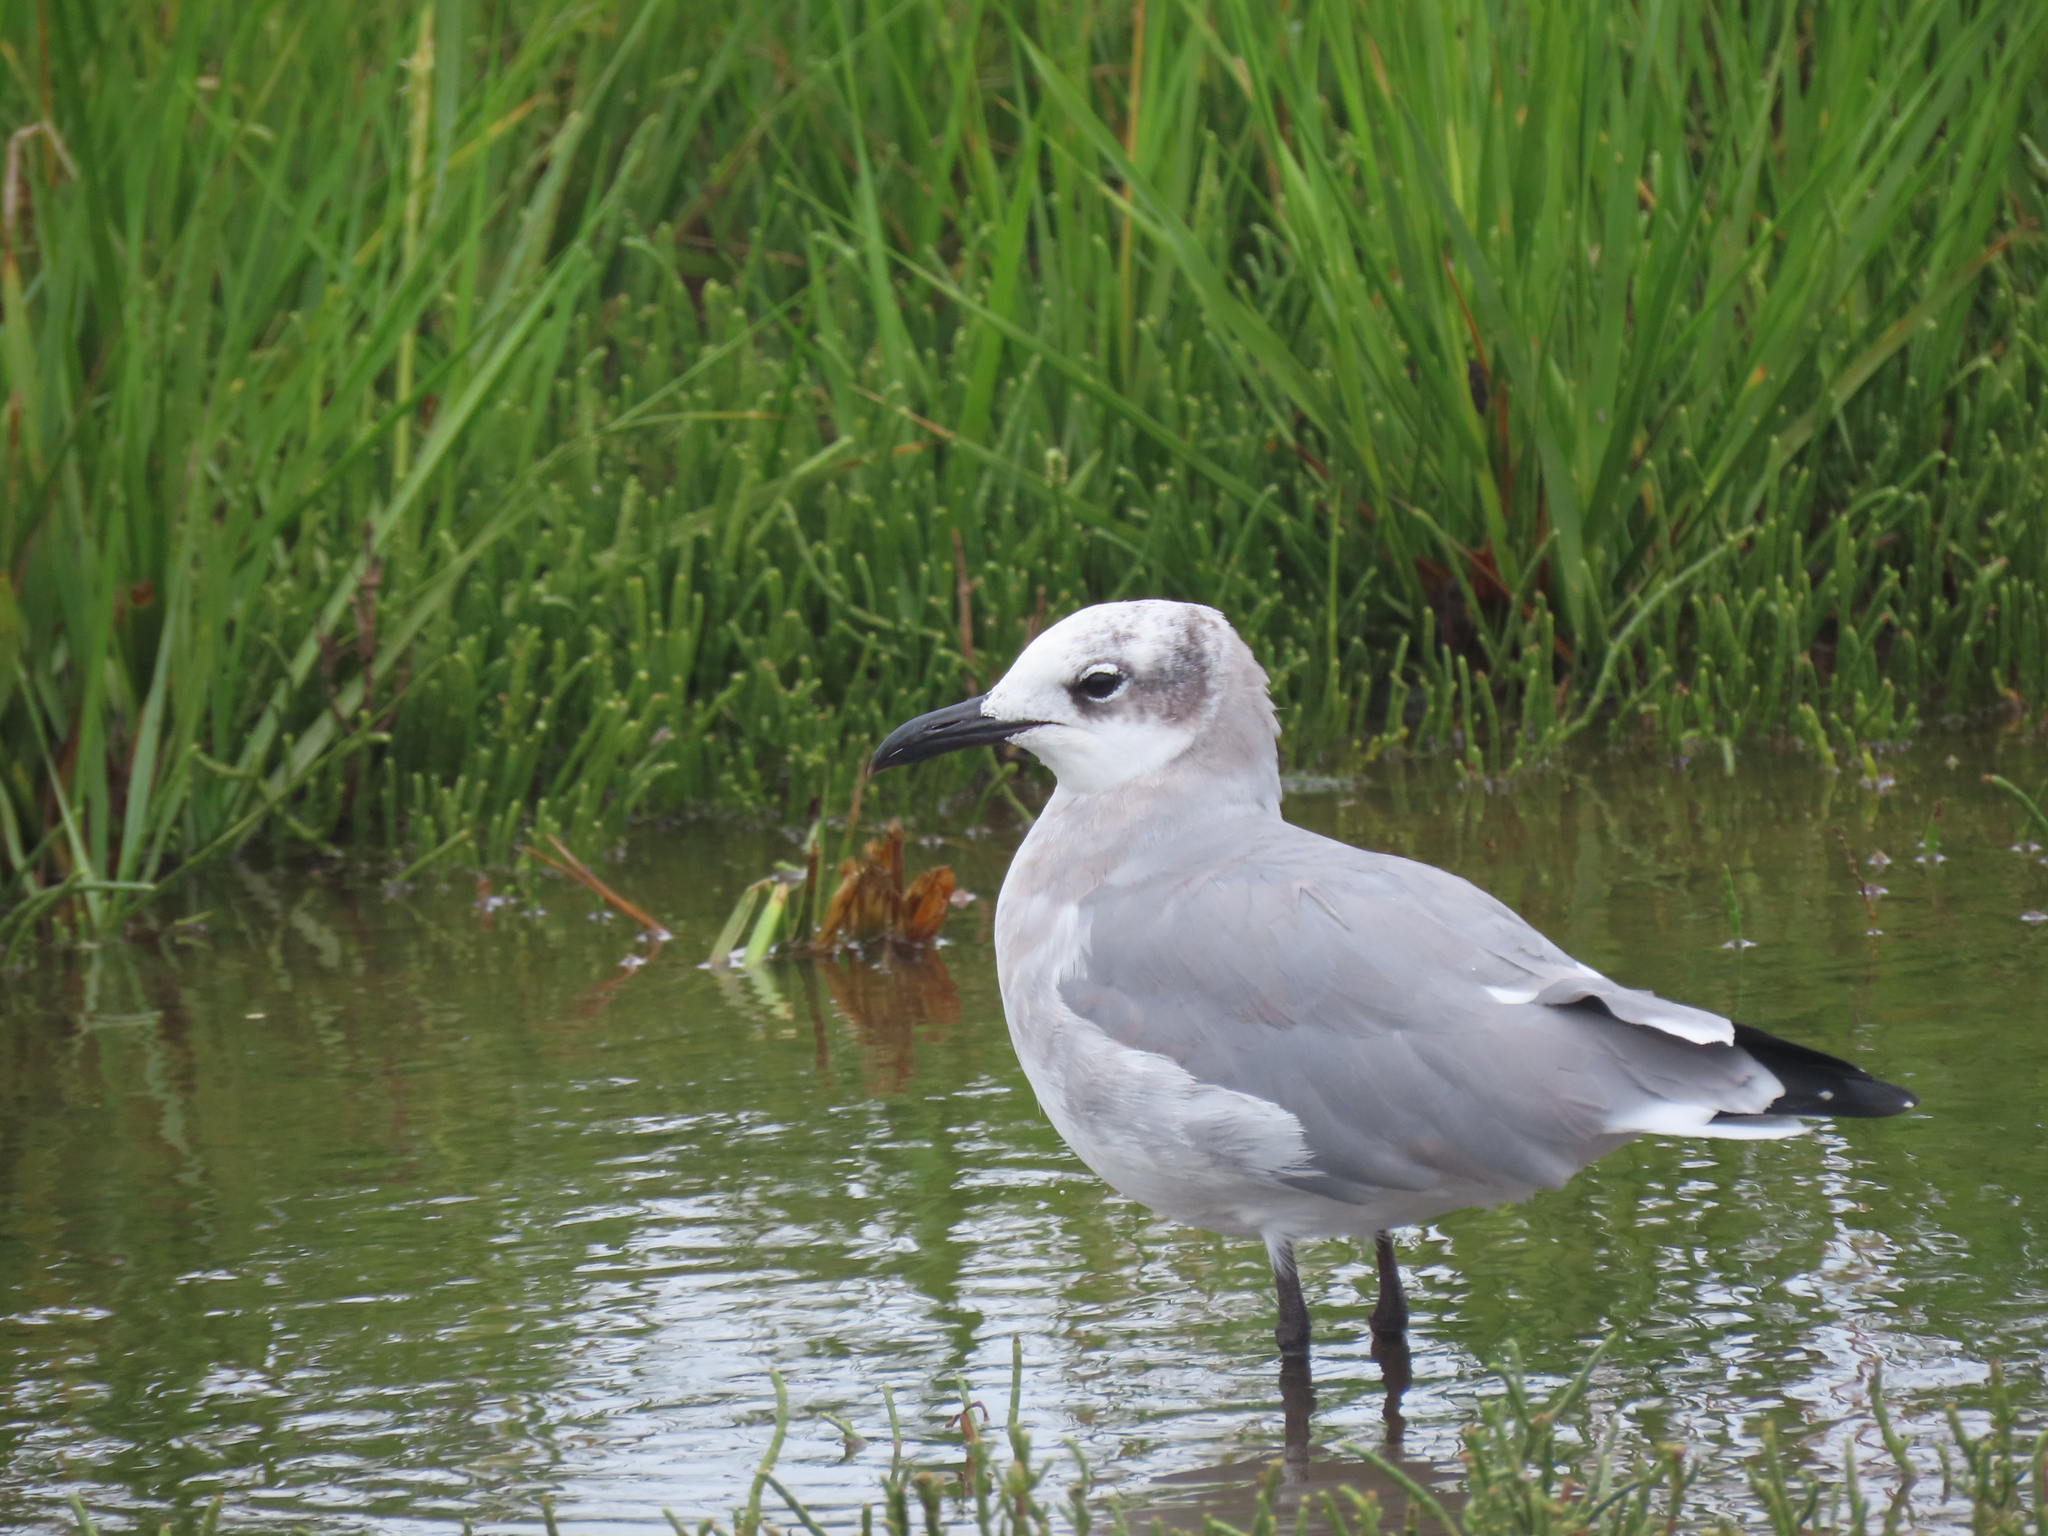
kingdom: Animalia
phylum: Chordata
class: Aves
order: Charadriiformes
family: Laridae
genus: Leucophaeus
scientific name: Leucophaeus atricilla
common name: Laughing gull
